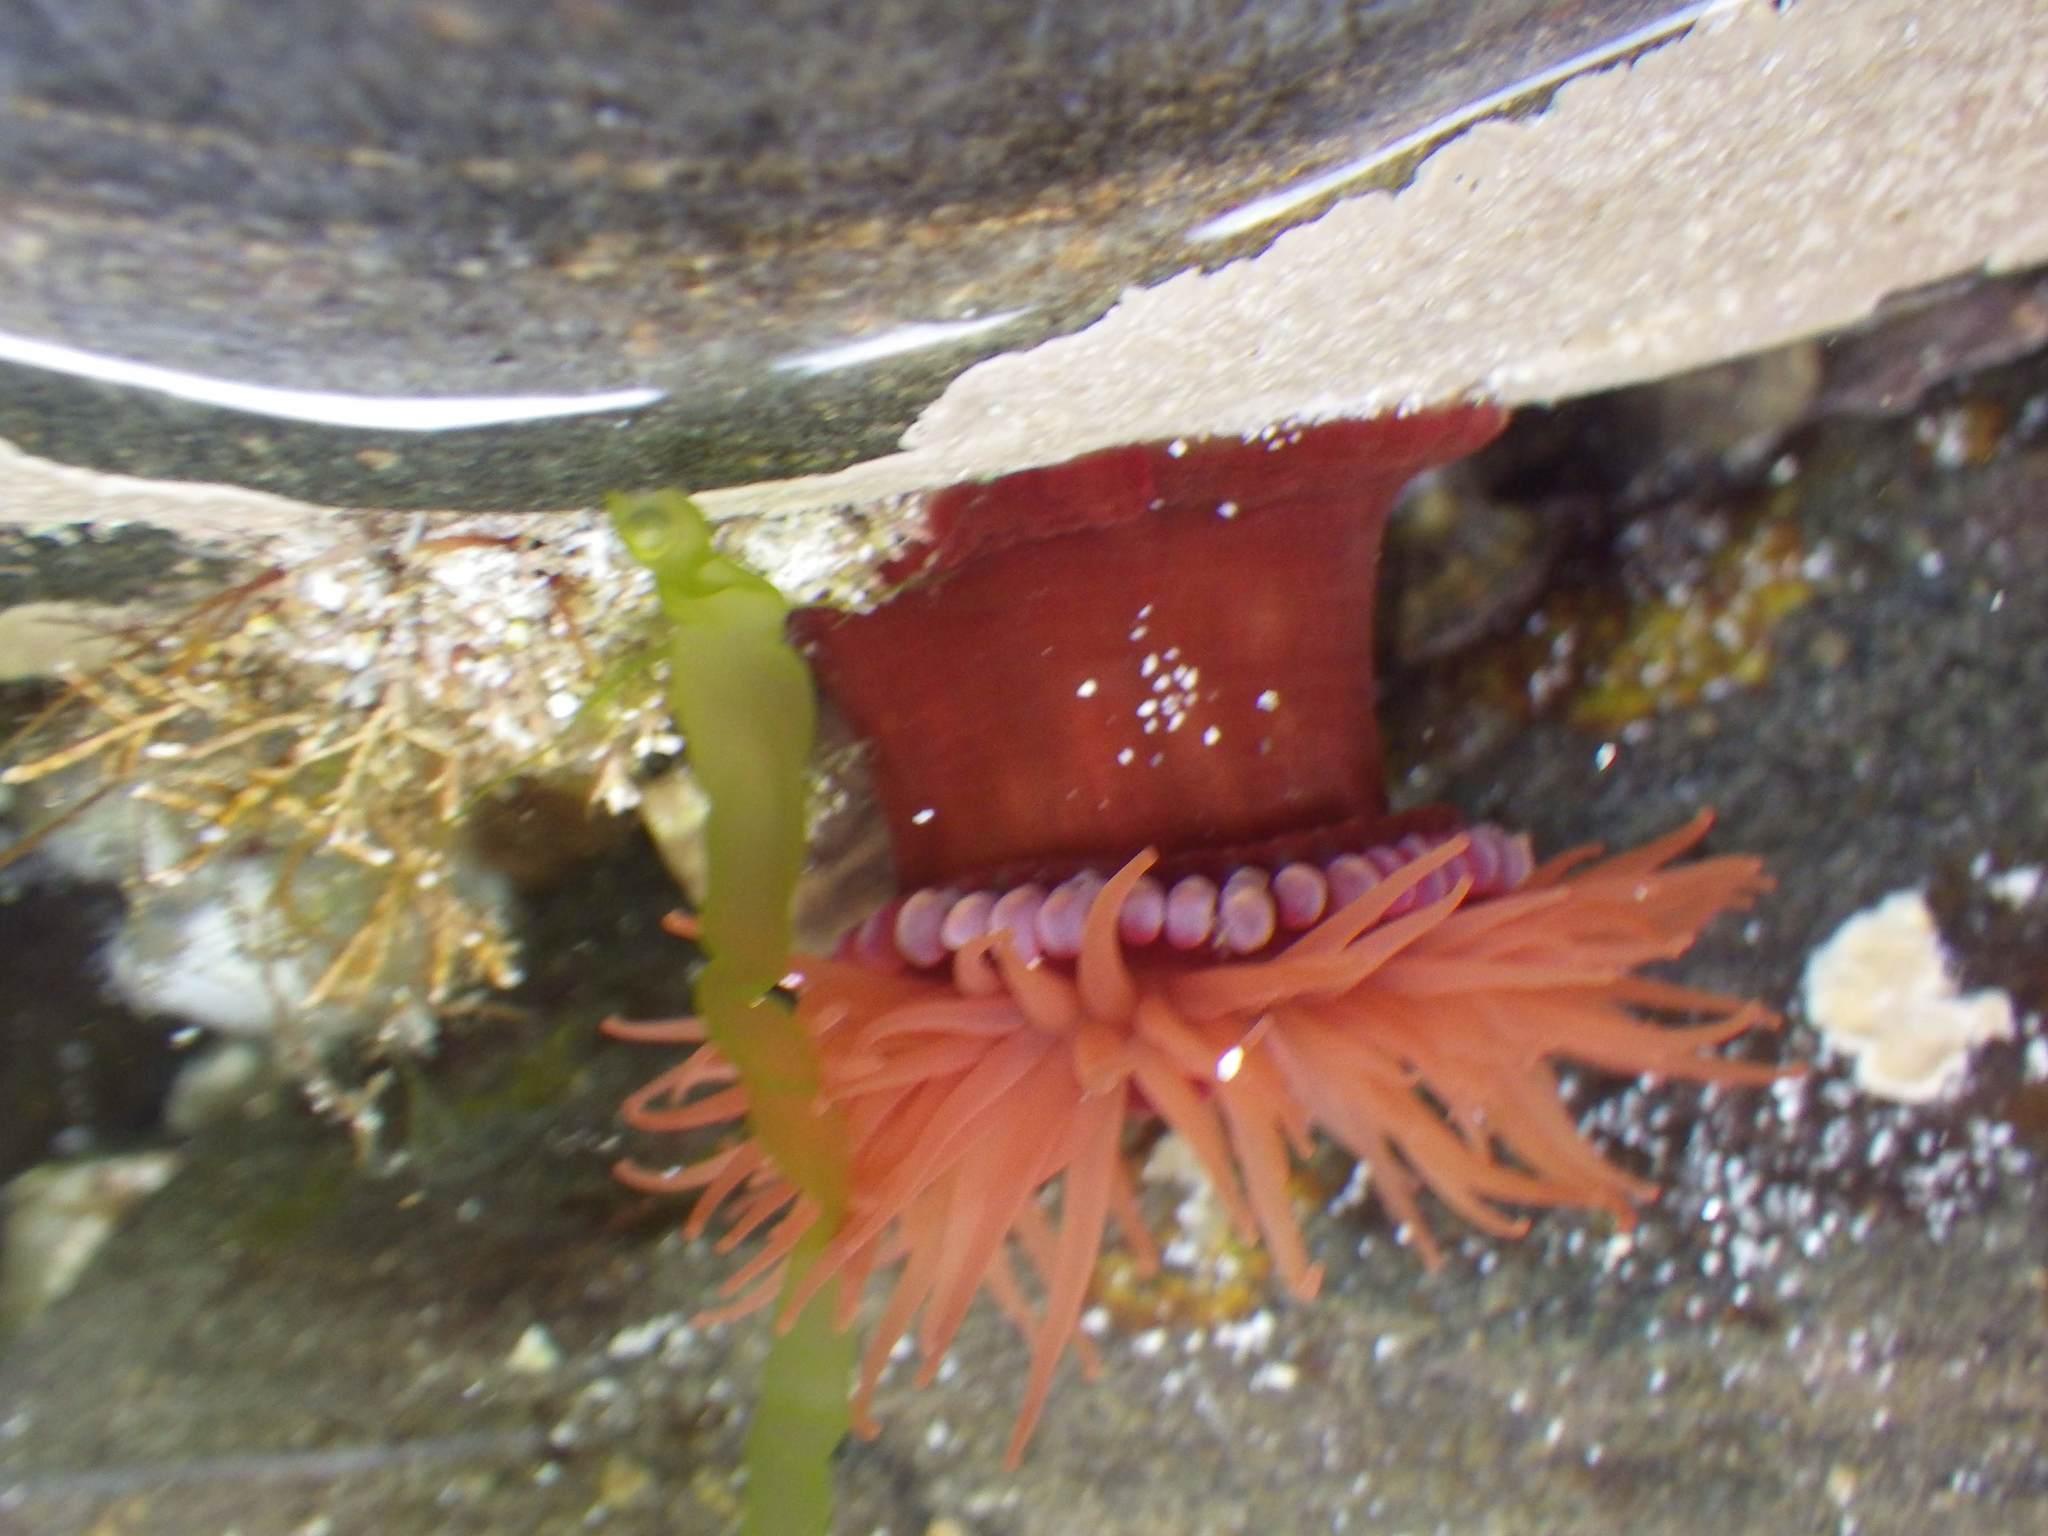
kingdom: Animalia
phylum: Cnidaria
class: Anthozoa
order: Actiniaria
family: Actiniidae
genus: Actinia
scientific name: Actinia equina
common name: Beadlet anemone
